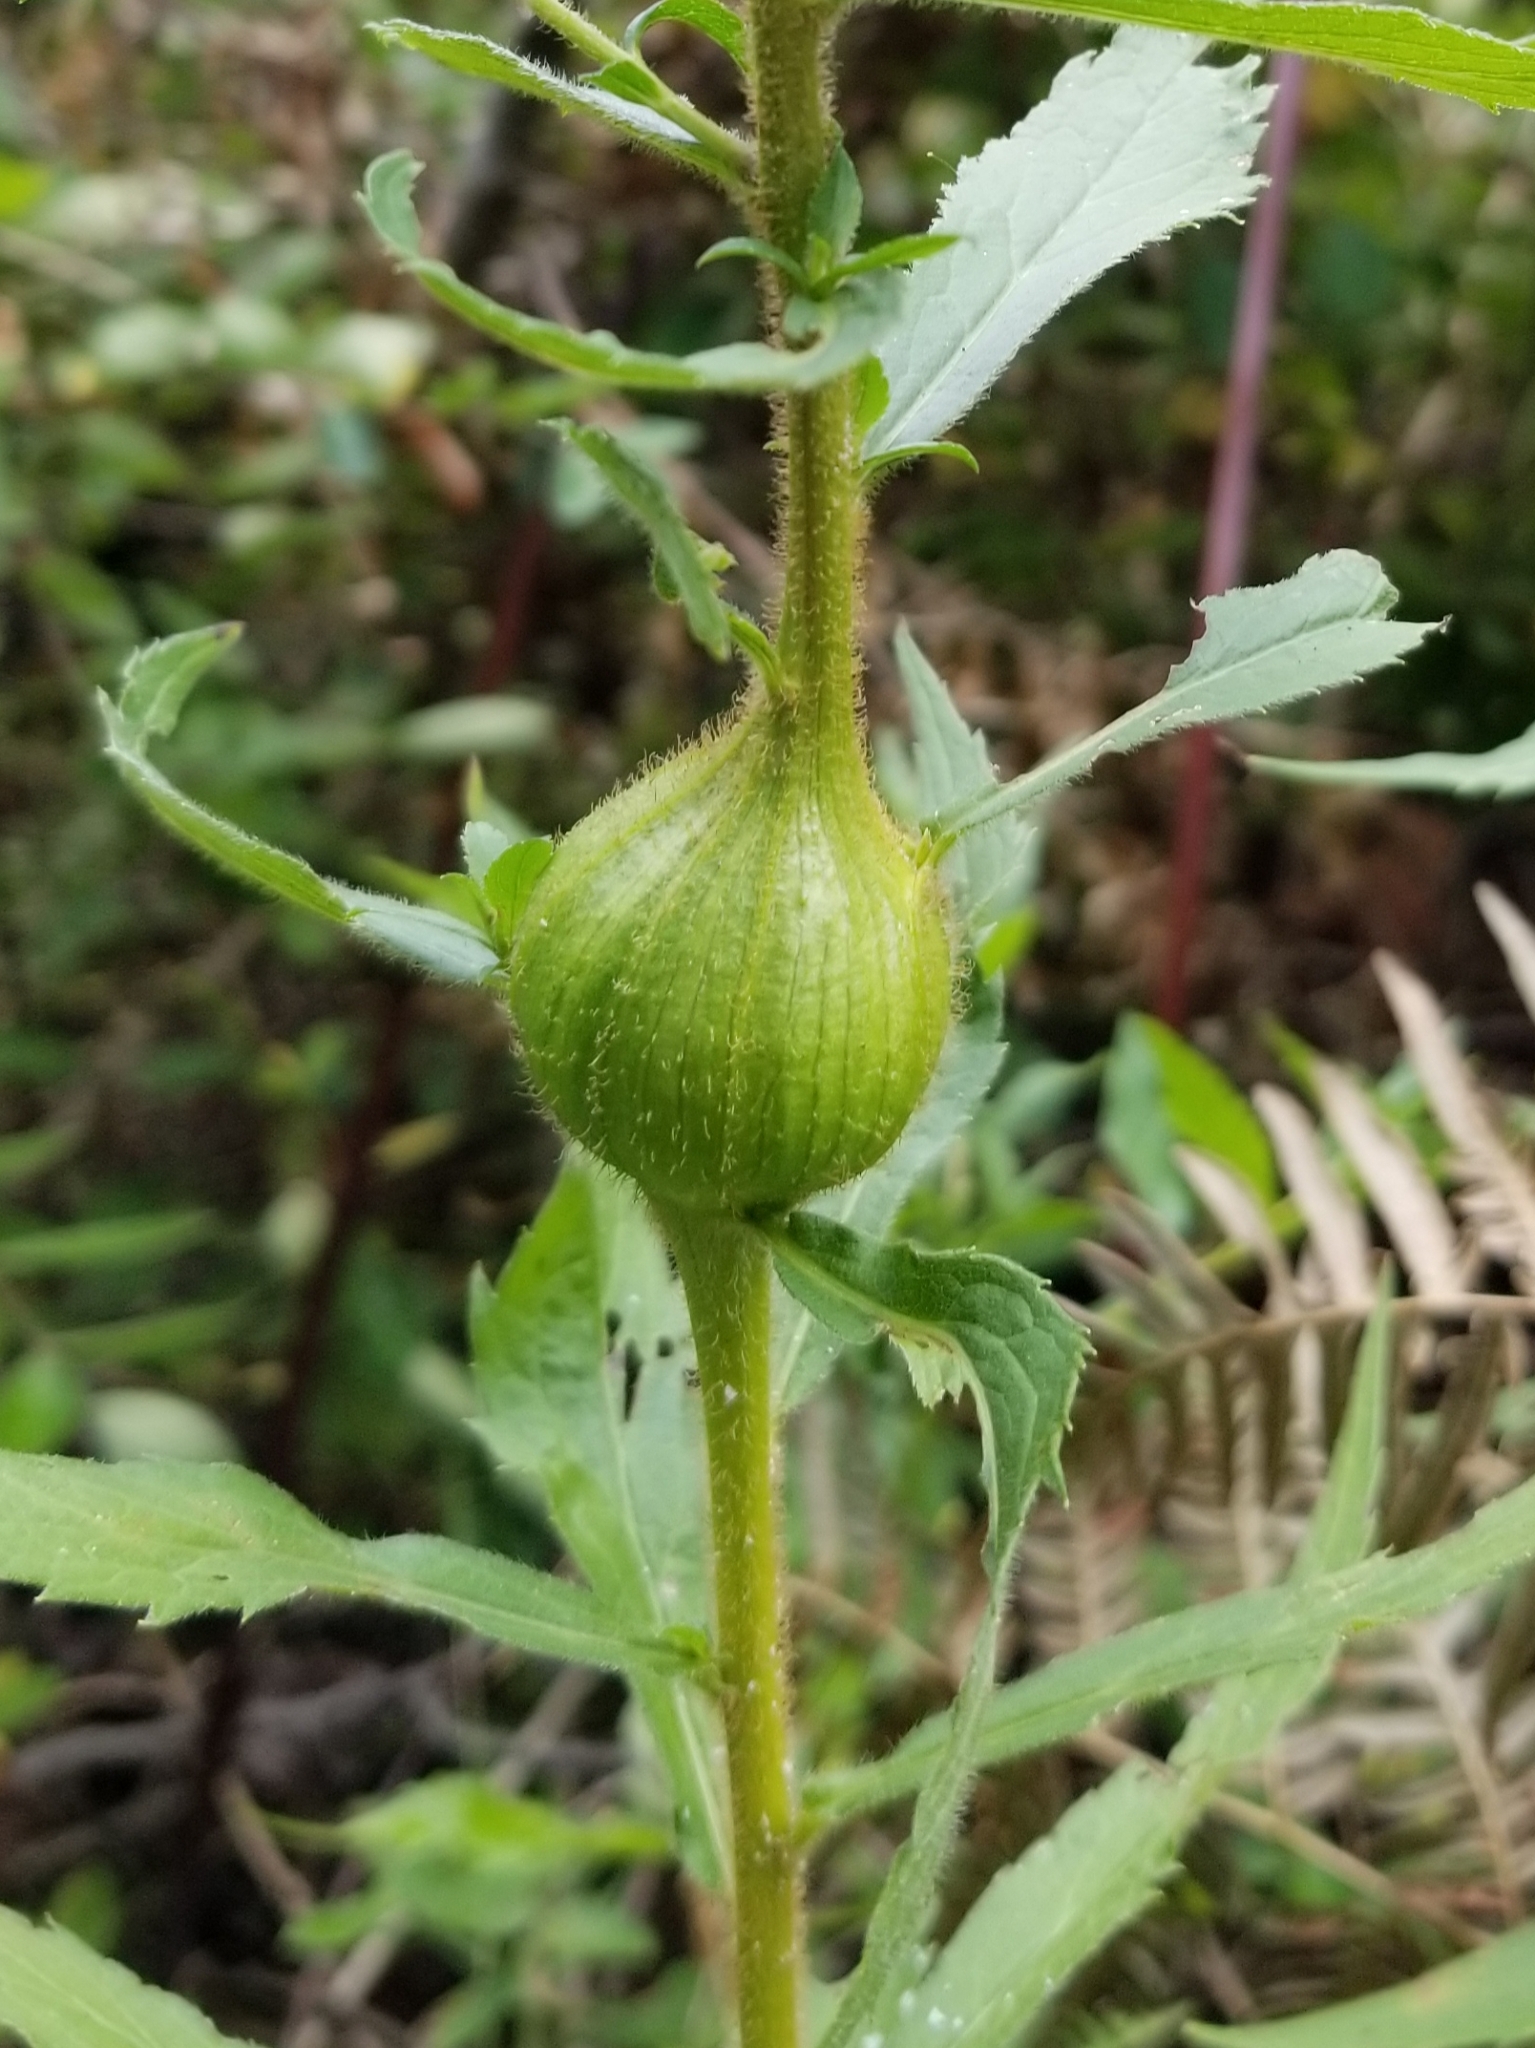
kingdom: Animalia
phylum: Arthropoda
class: Insecta
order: Diptera
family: Tephritidae
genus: Eurosta
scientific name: Eurosta solidaginis
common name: Goldenrod gall fly
